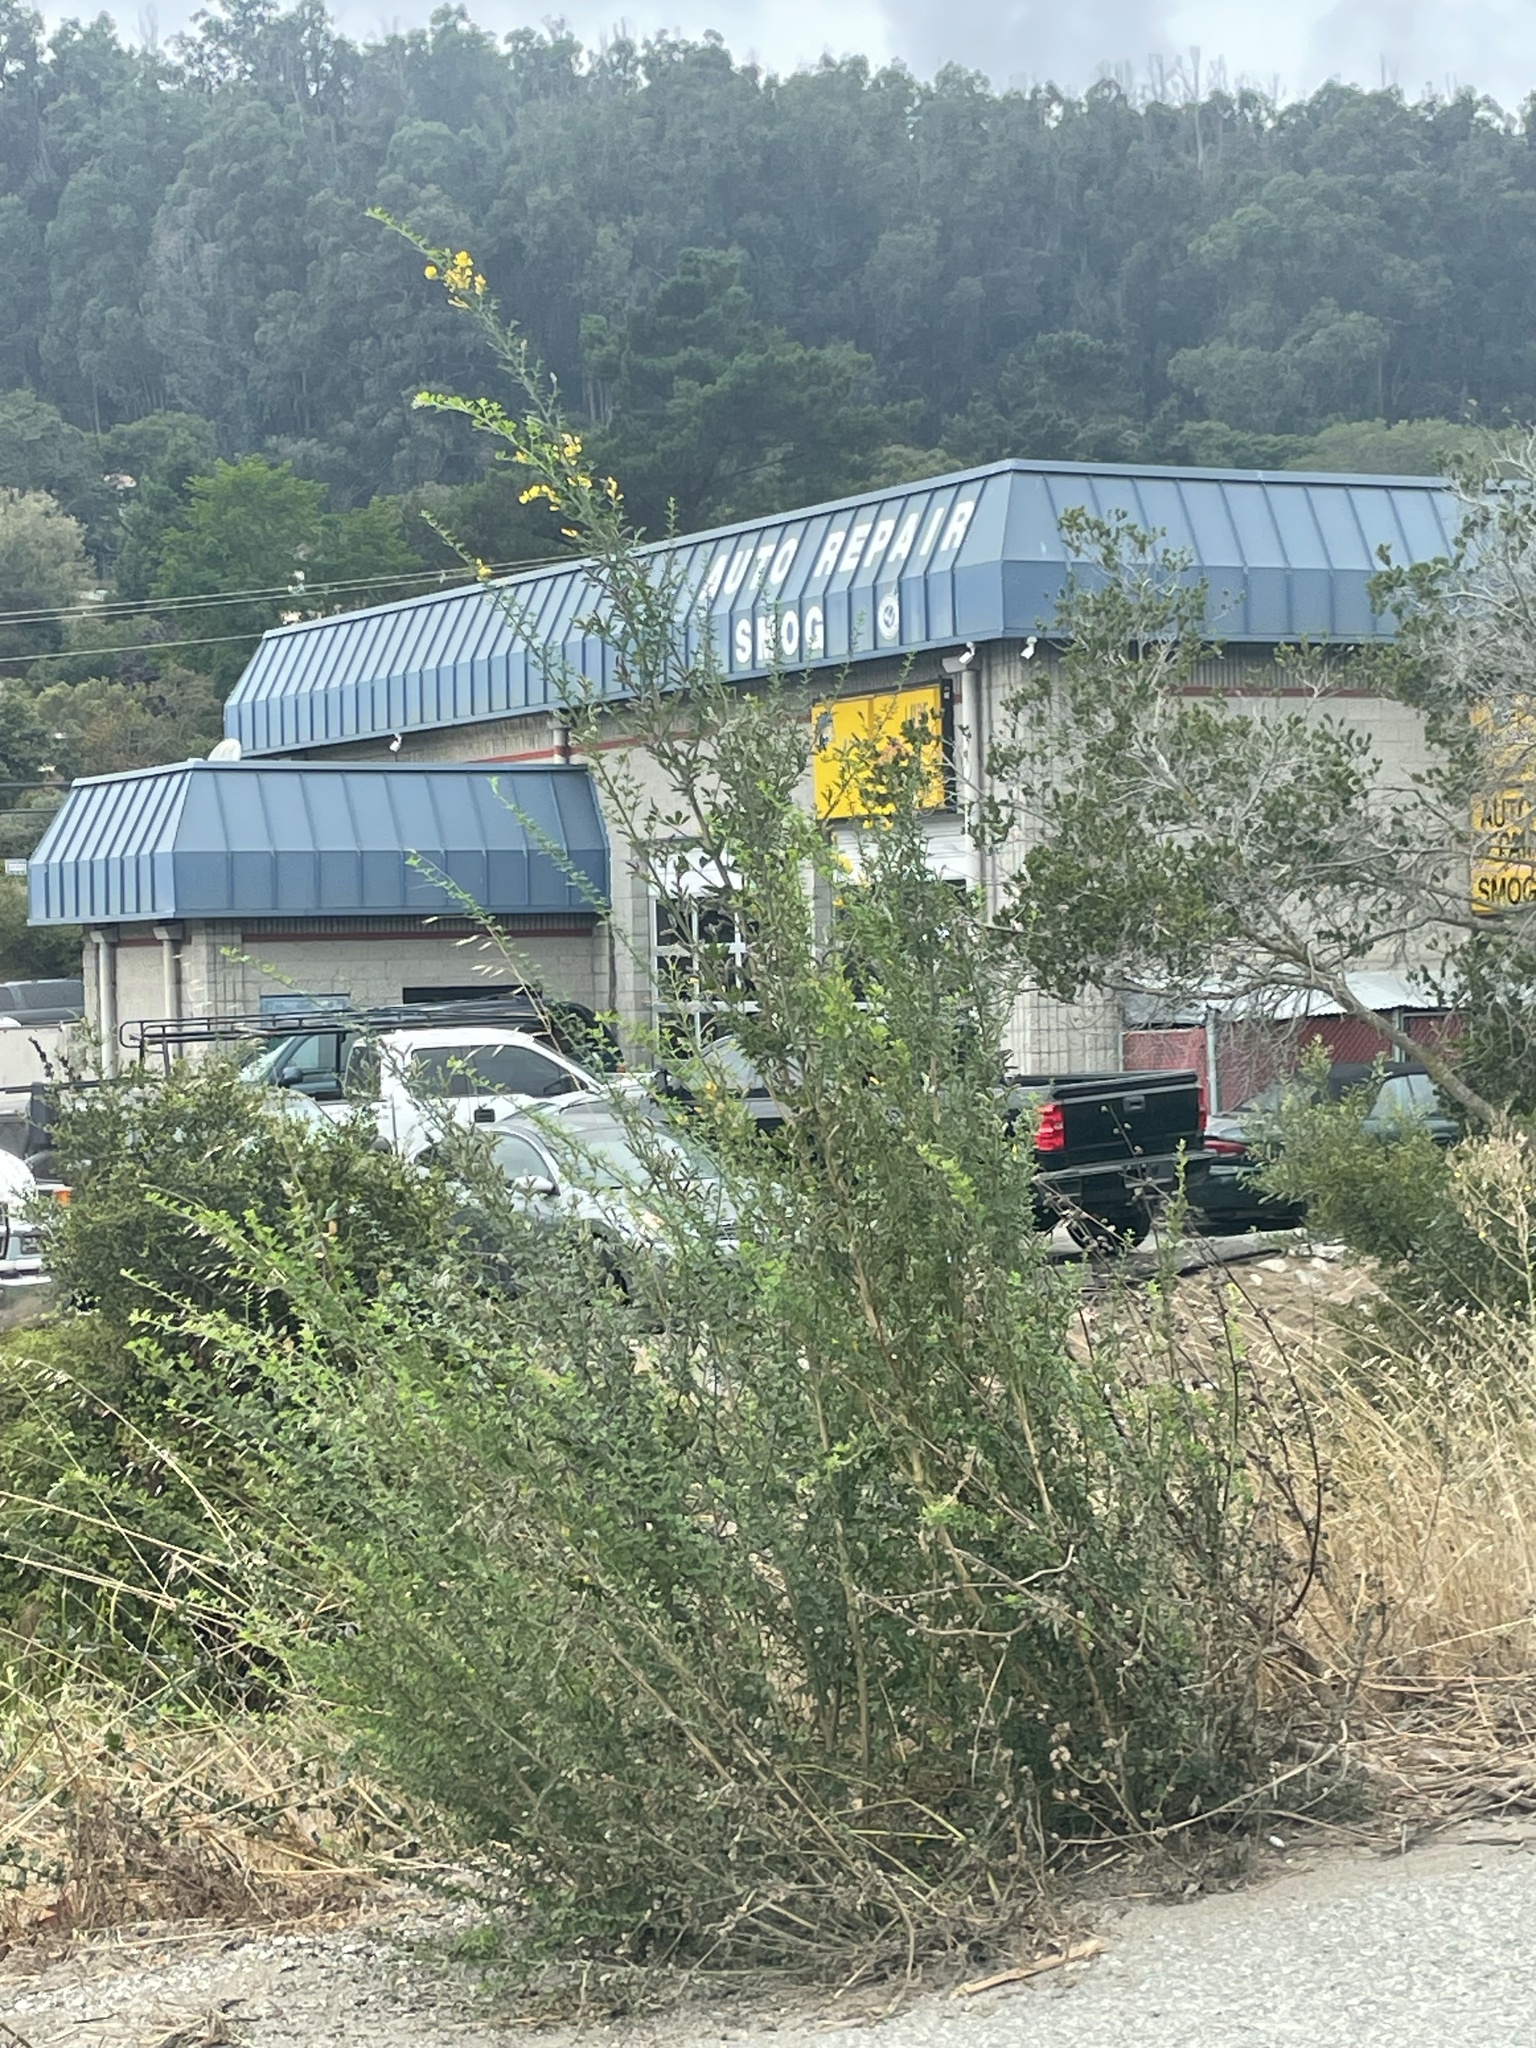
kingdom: Plantae
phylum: Tracheophyta
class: Magnoliopsida
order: Fabales
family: Fabaceae
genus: Genista
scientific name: Genista monspessulana
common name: Montpellier broom
